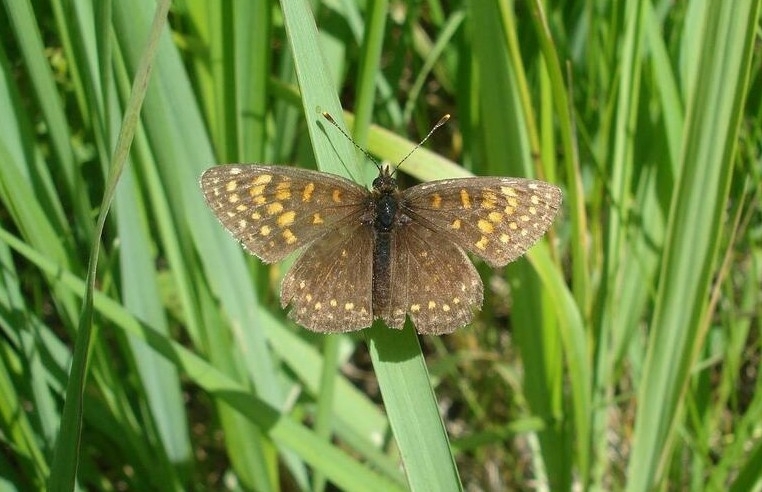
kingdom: Animalia
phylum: Arthropoda
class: Insecta
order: Lepidoptera
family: Nymphalidae
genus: Melitaea
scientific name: Melitaea diamina
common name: False heath fritillary
